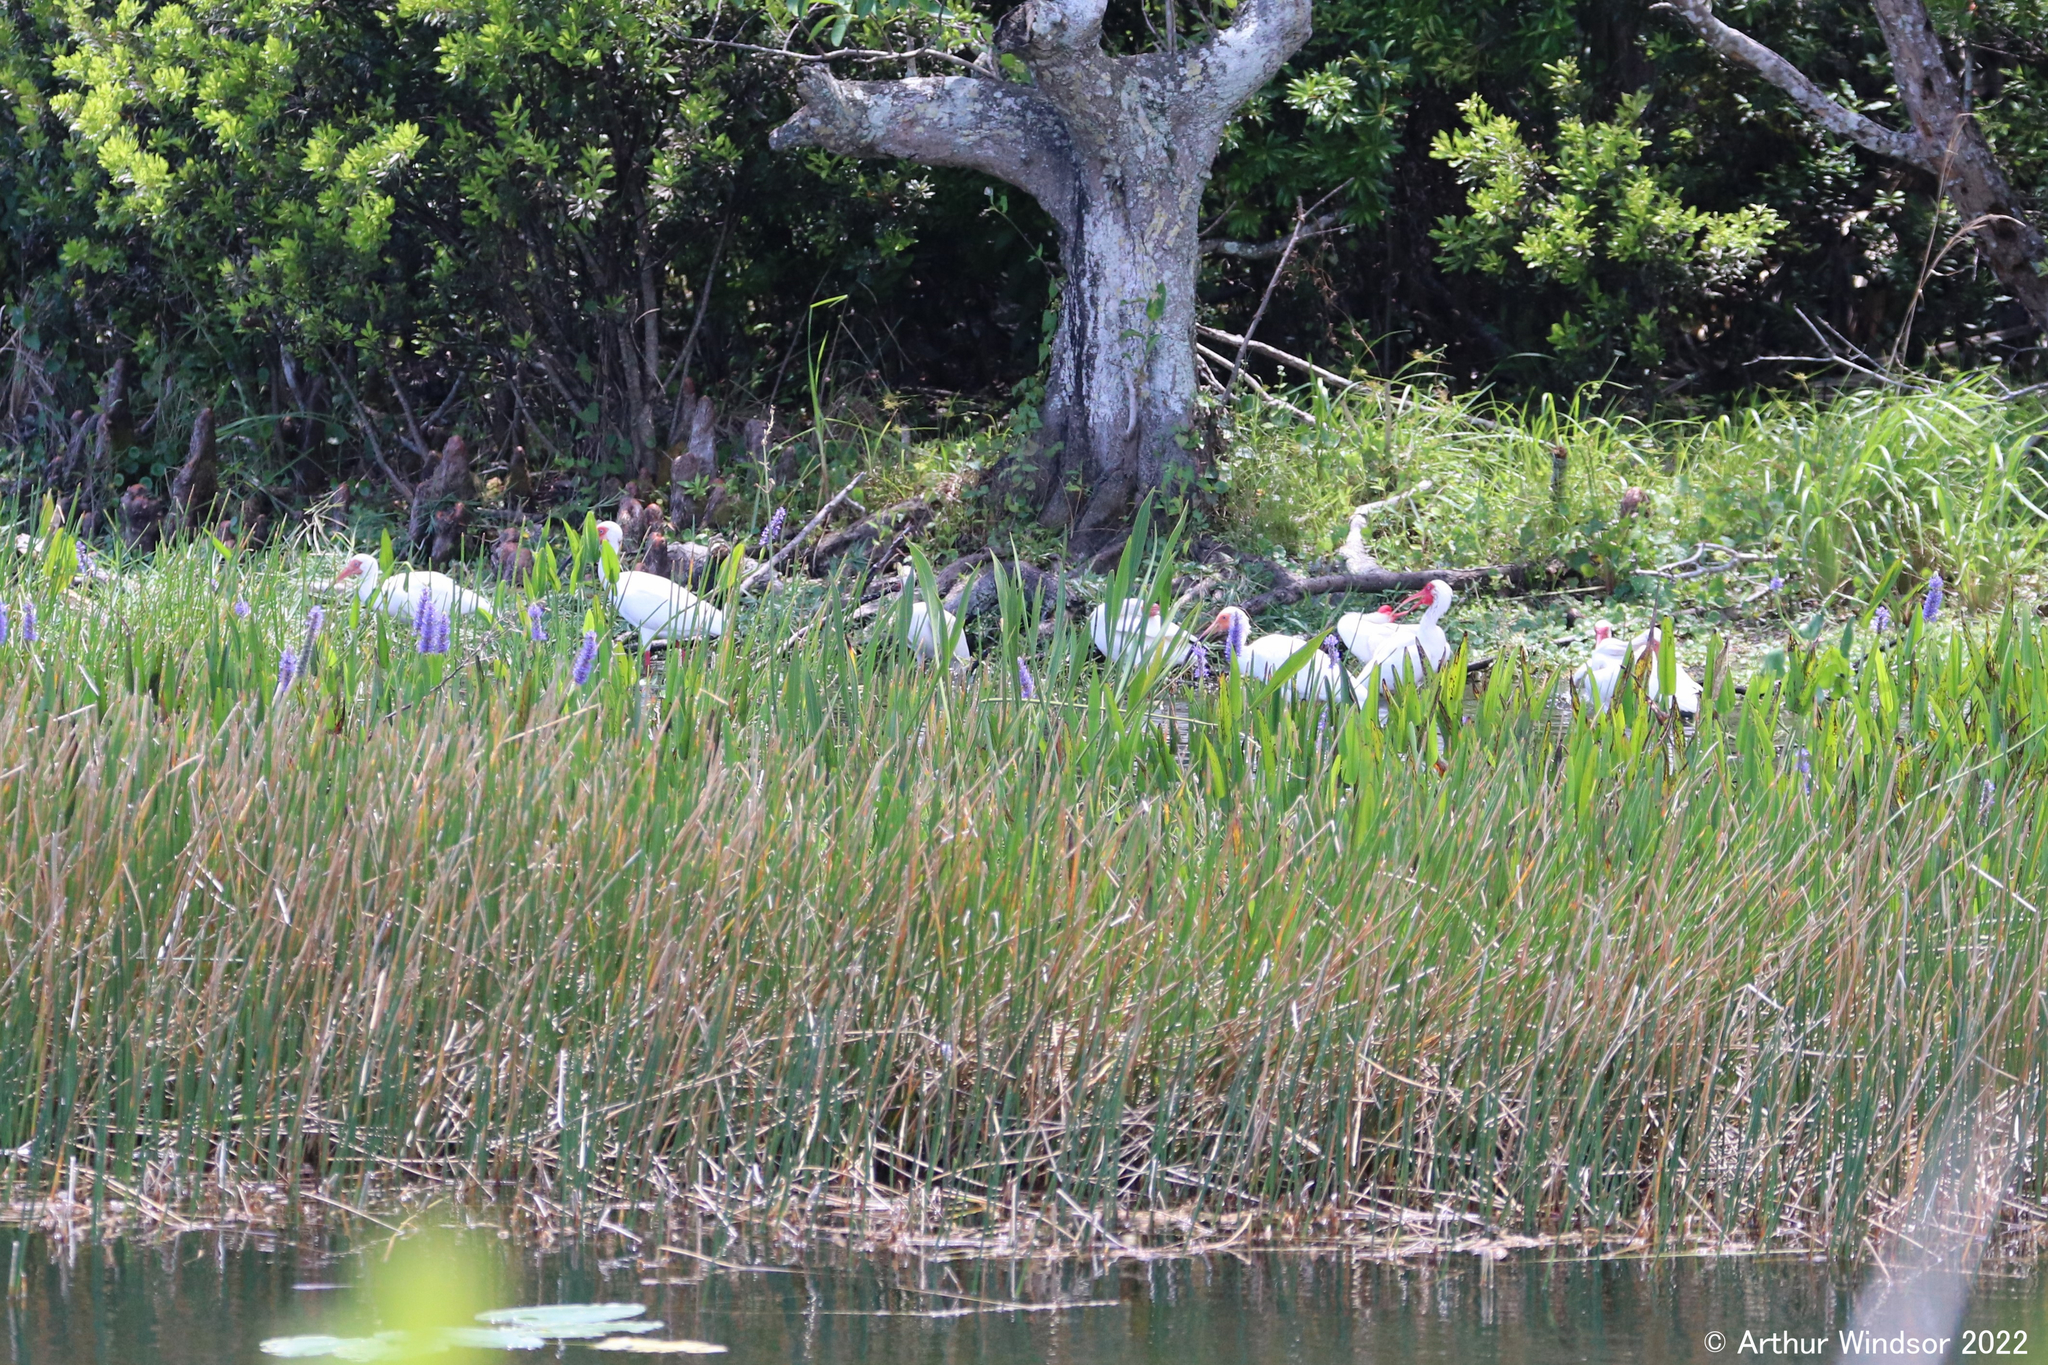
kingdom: Animalia
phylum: Chordata
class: Aves
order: Pelecaniformes
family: Threskiornithidae
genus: Eudocimus
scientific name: Eudocimus albus
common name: White ibis
